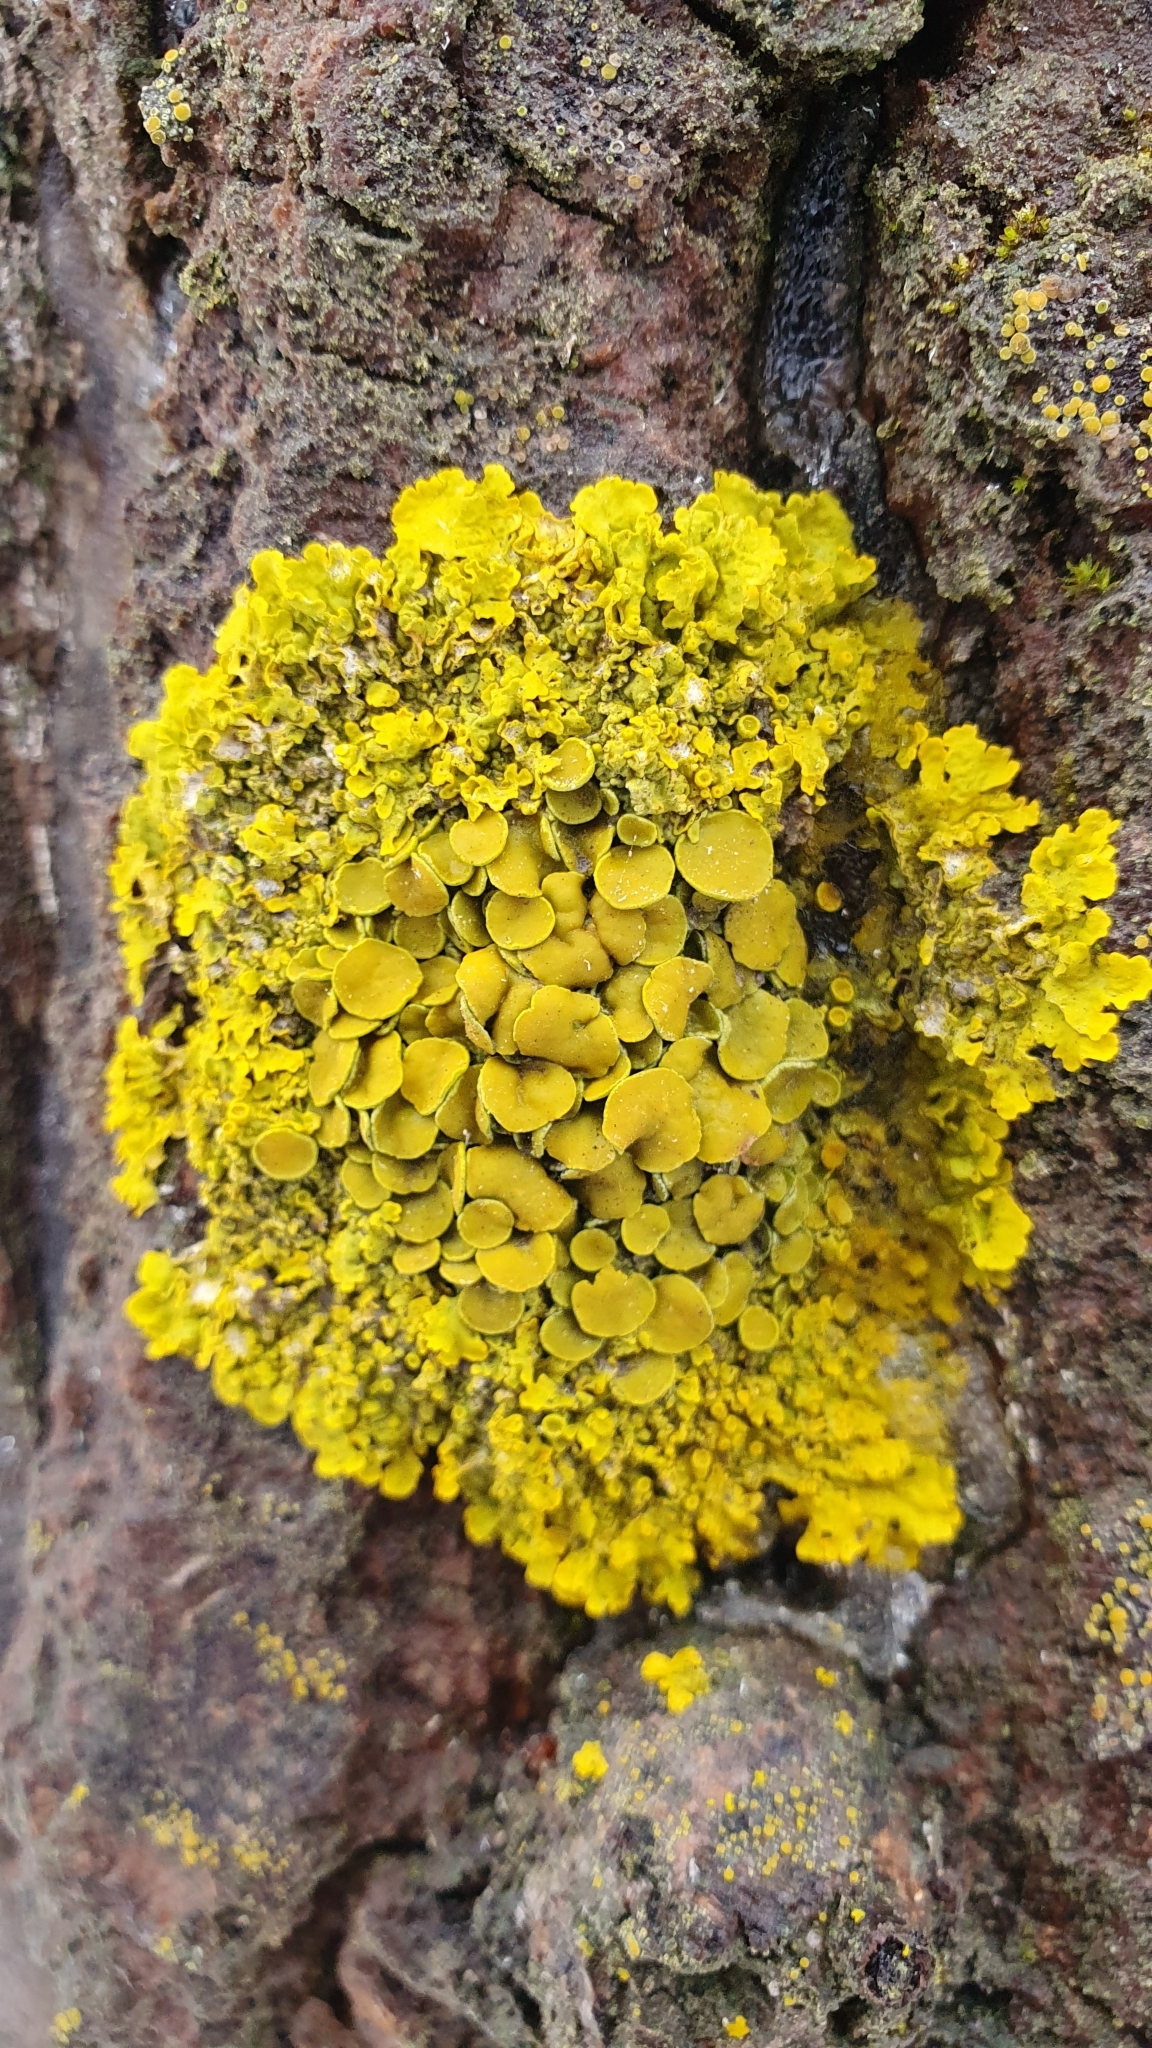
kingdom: Fungi
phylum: Ascomycota
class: Lecanoromycetes
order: Teloschistales
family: Teloschistaceae
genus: Xanthoria
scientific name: Xanthoria parietina
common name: Common orange lichen
